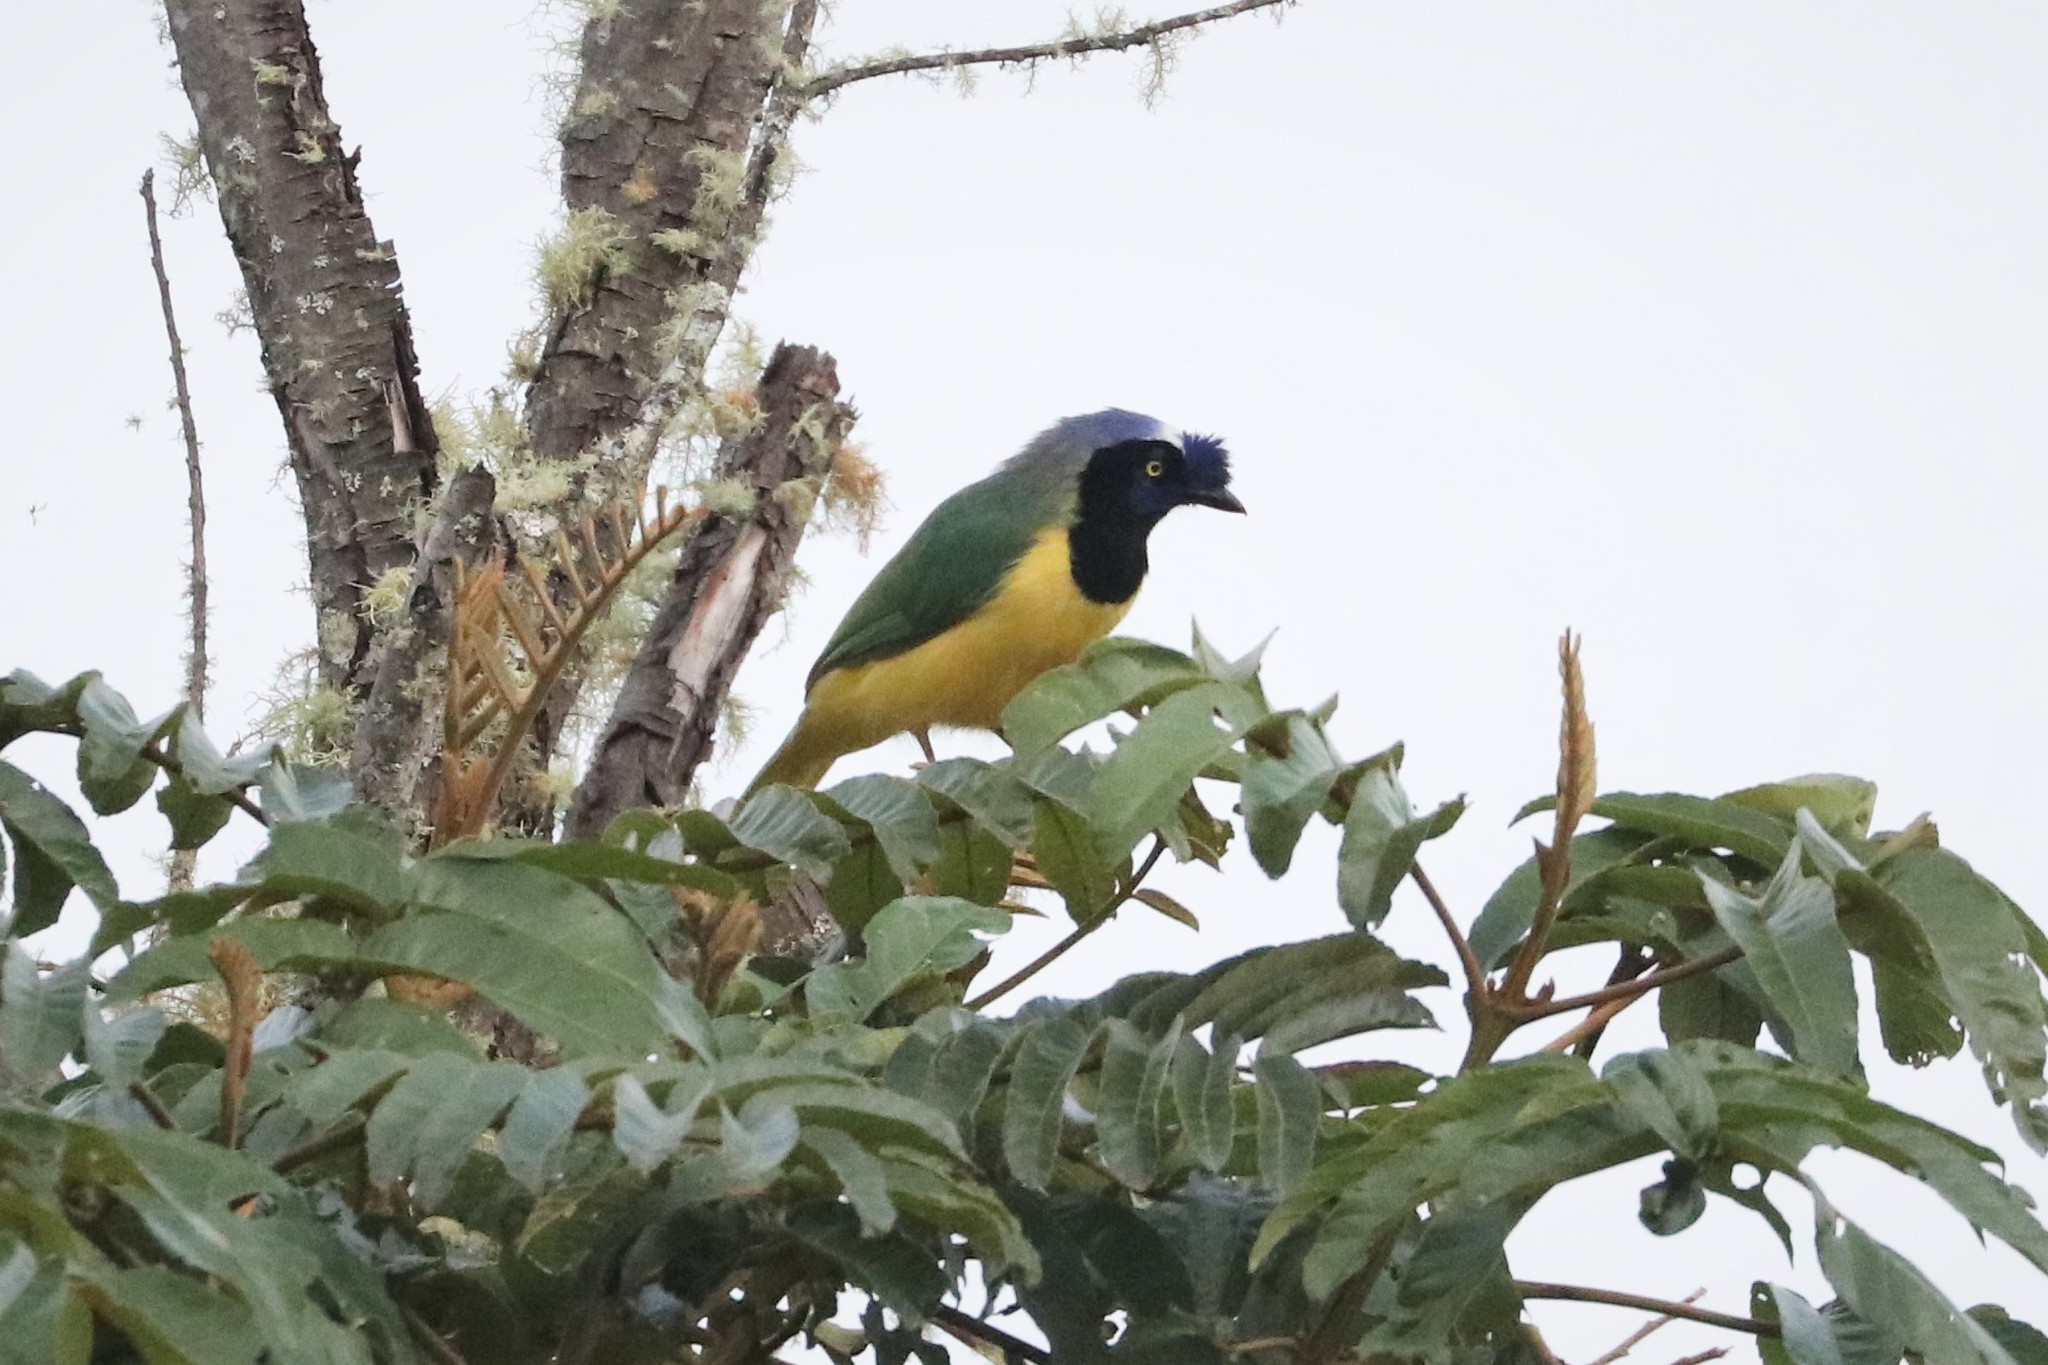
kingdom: Animalia
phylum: Chordata
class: Aves
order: Passeriformes
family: Corvidae
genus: Cyanocorax
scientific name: Cyanocorax yncas
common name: Green jay
